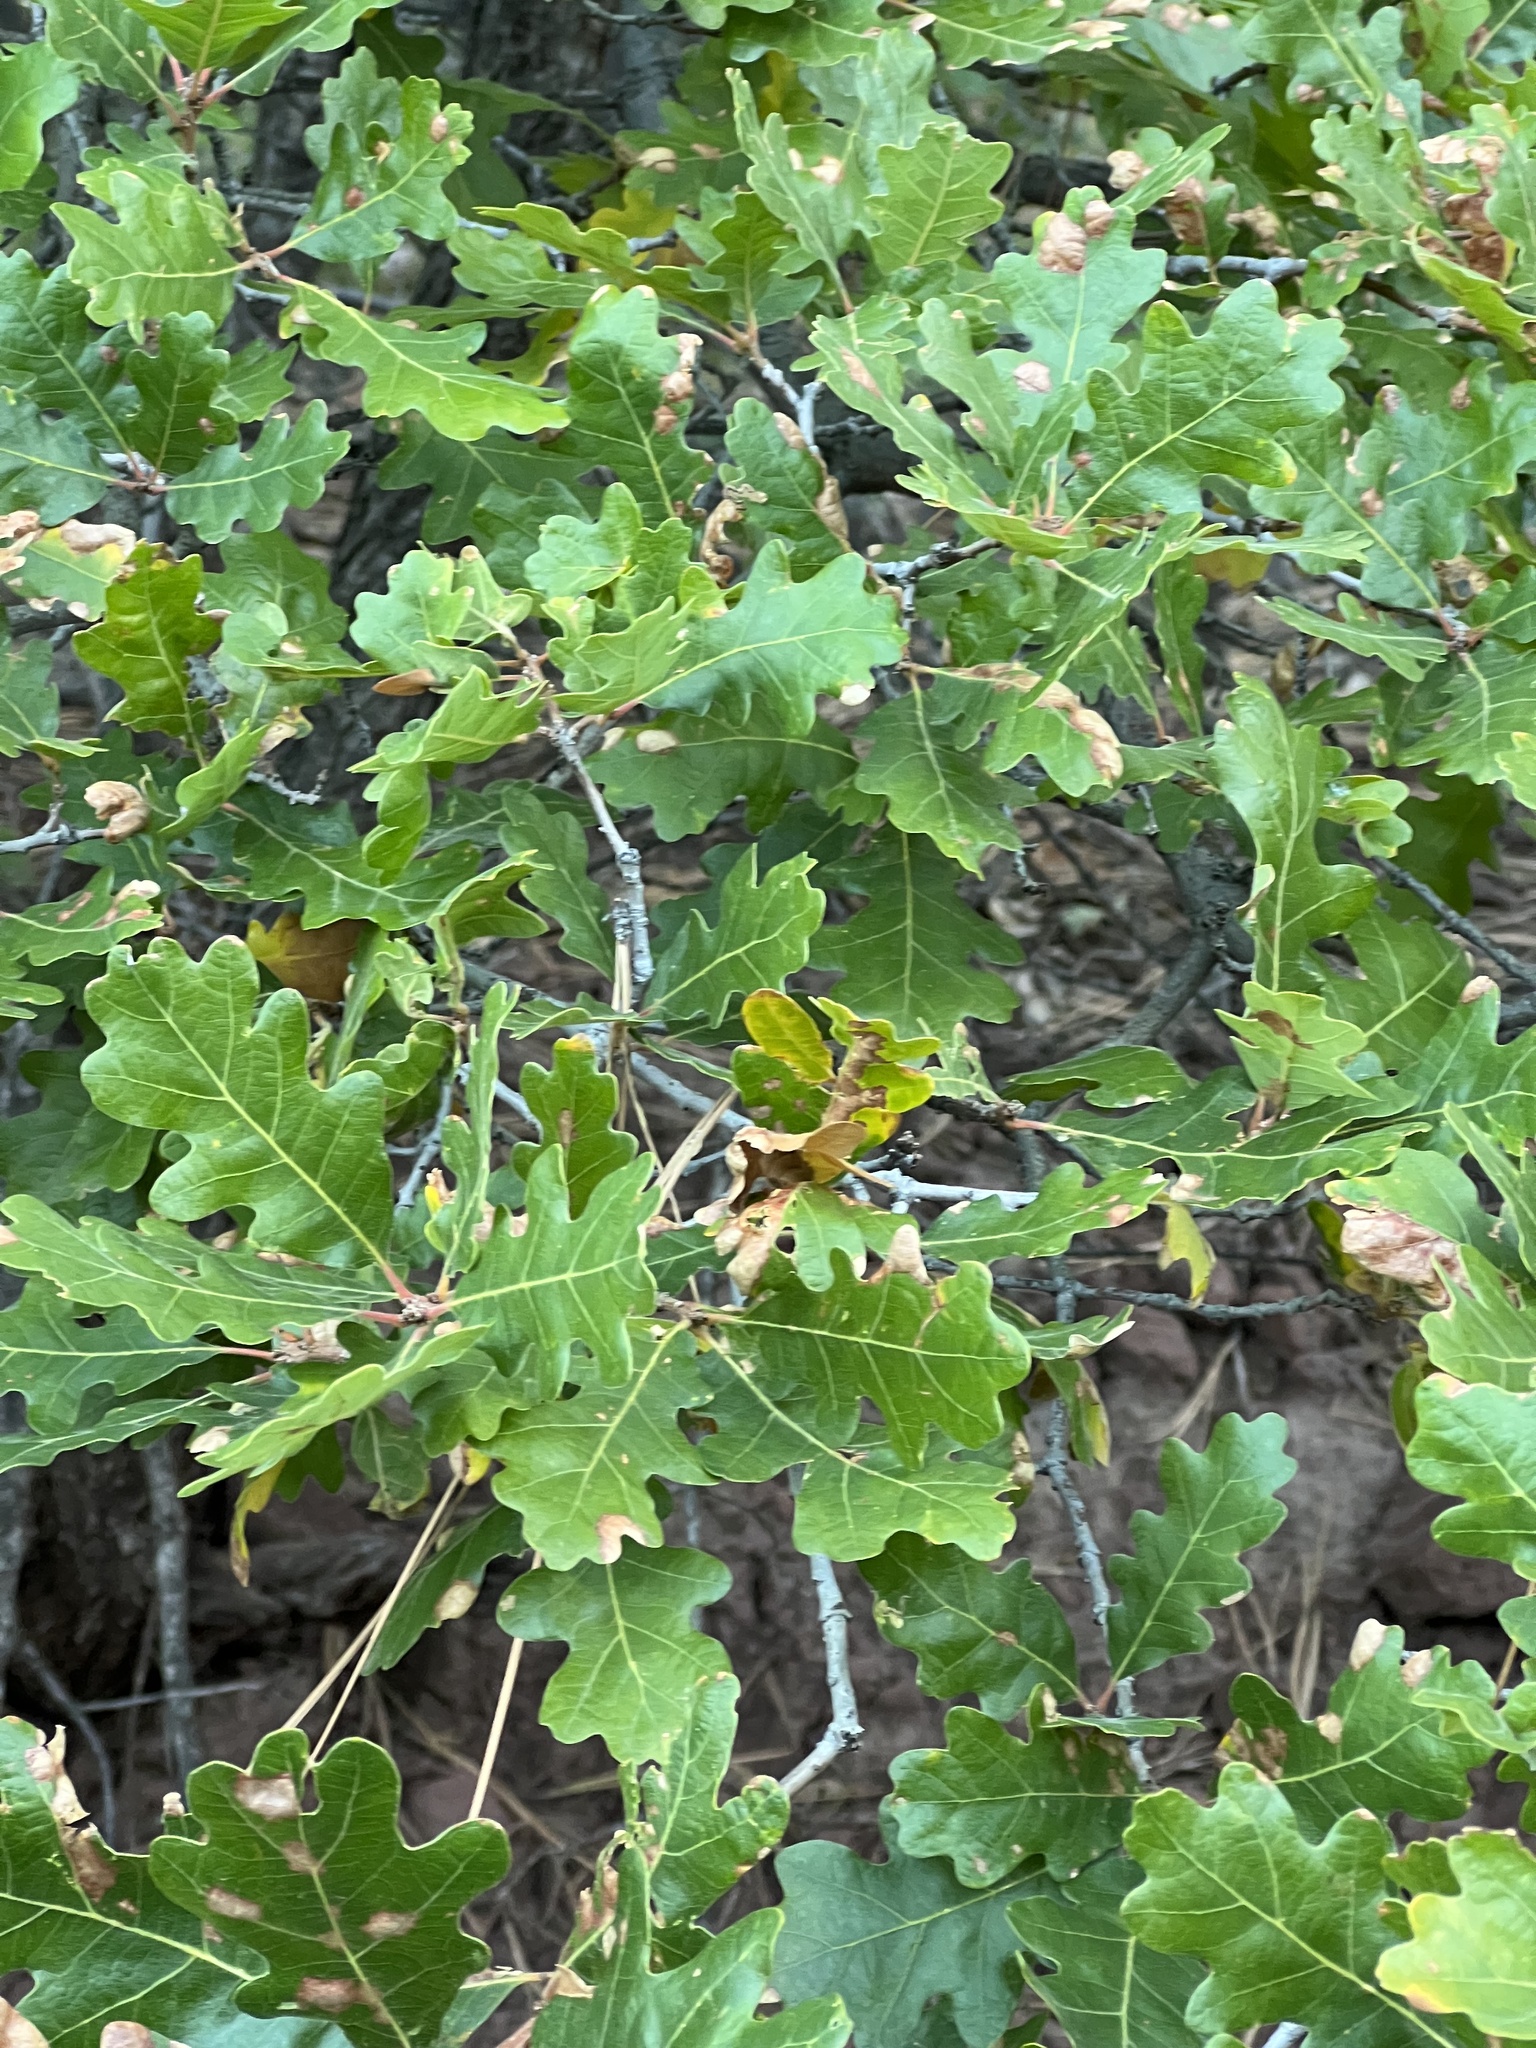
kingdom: Plantae
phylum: Tracheophyta
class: Magnoliopsida
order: Fagales
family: Fagaceae
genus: Quercus
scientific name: Quercus gambelii
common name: Gambel oak
